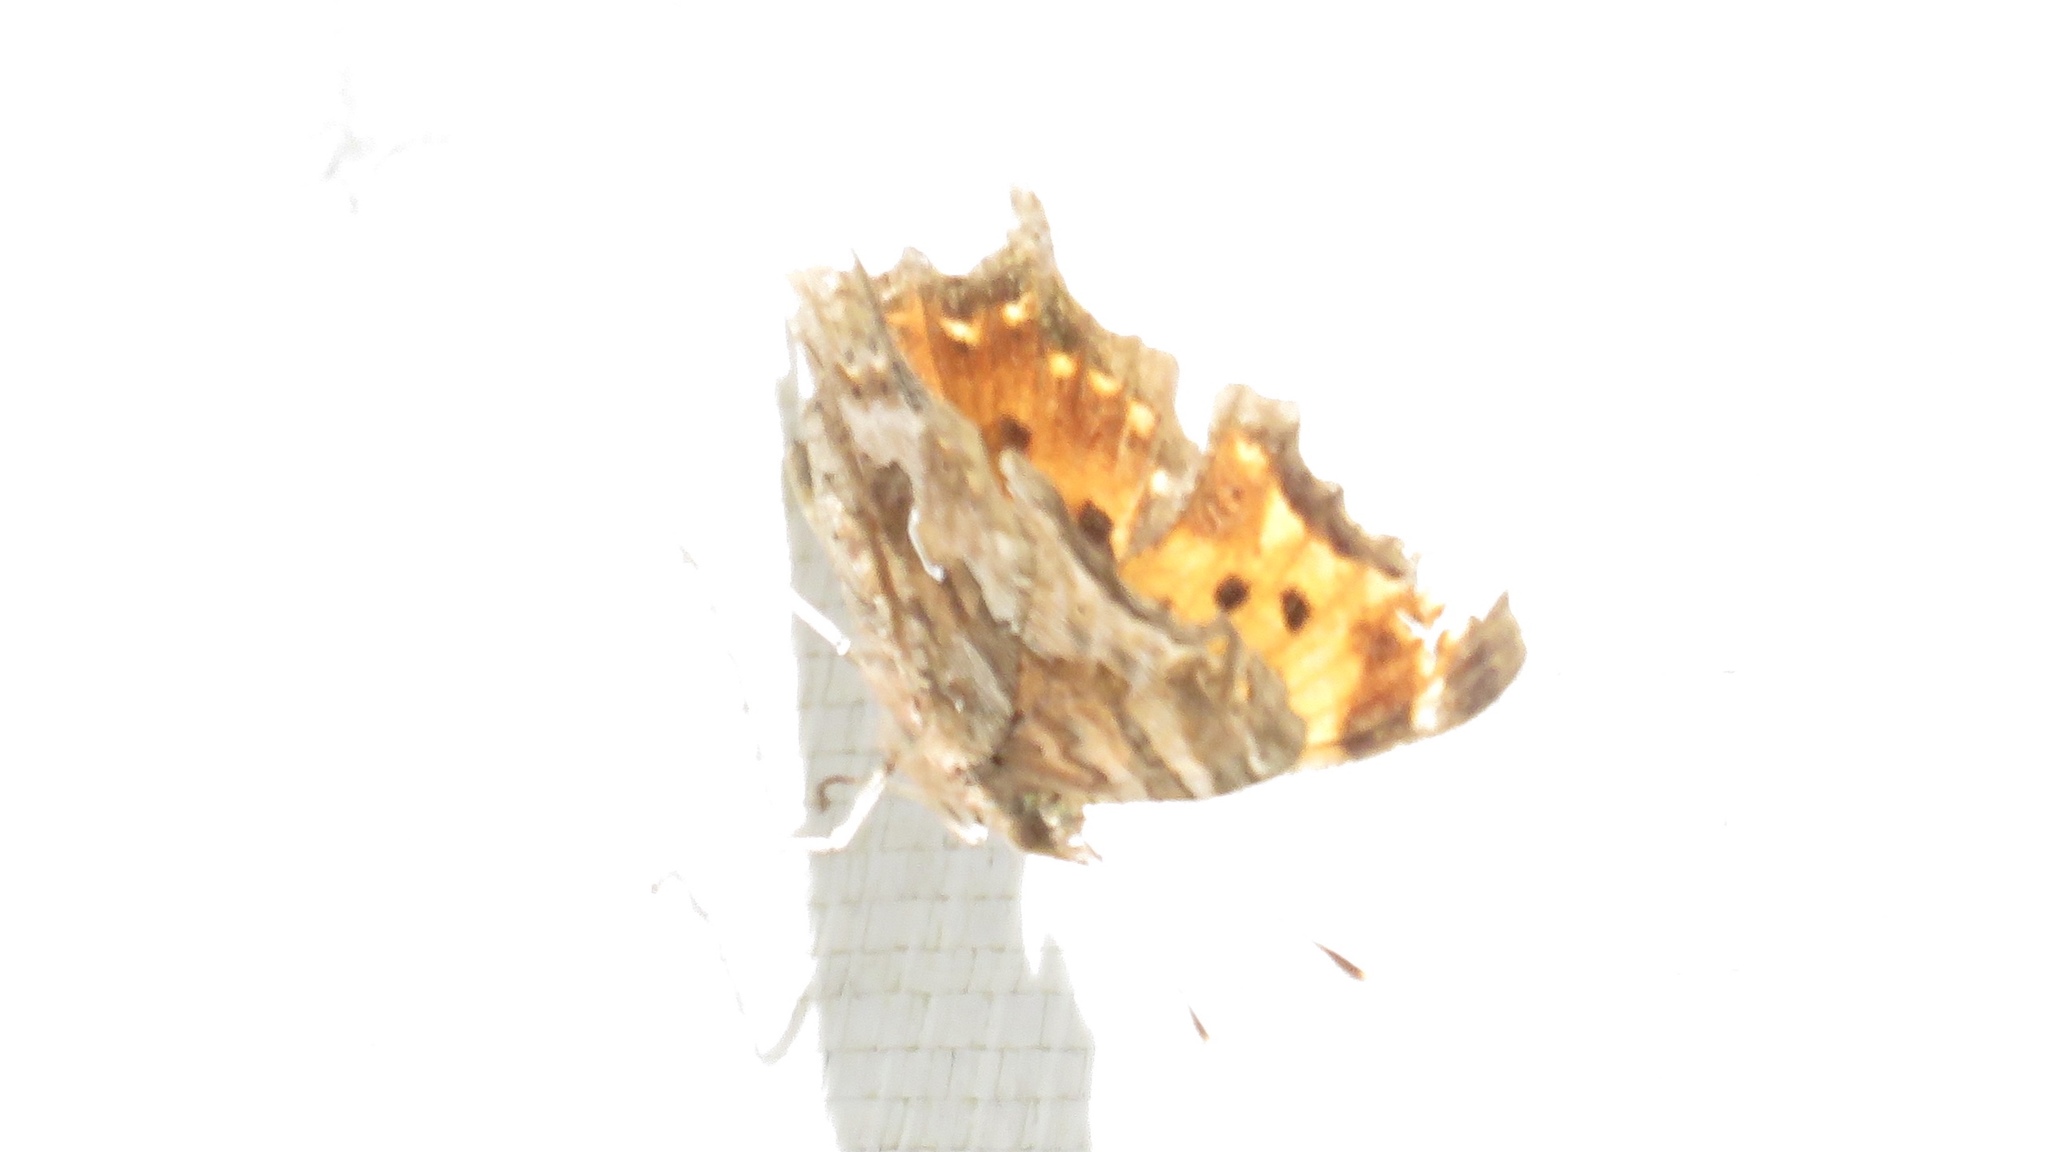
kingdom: Animalia
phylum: Arthropoda
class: Insecta
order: Lepidoptera
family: Nymphalidae
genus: Polygonia
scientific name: Polygonia comma
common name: Eastern comma
